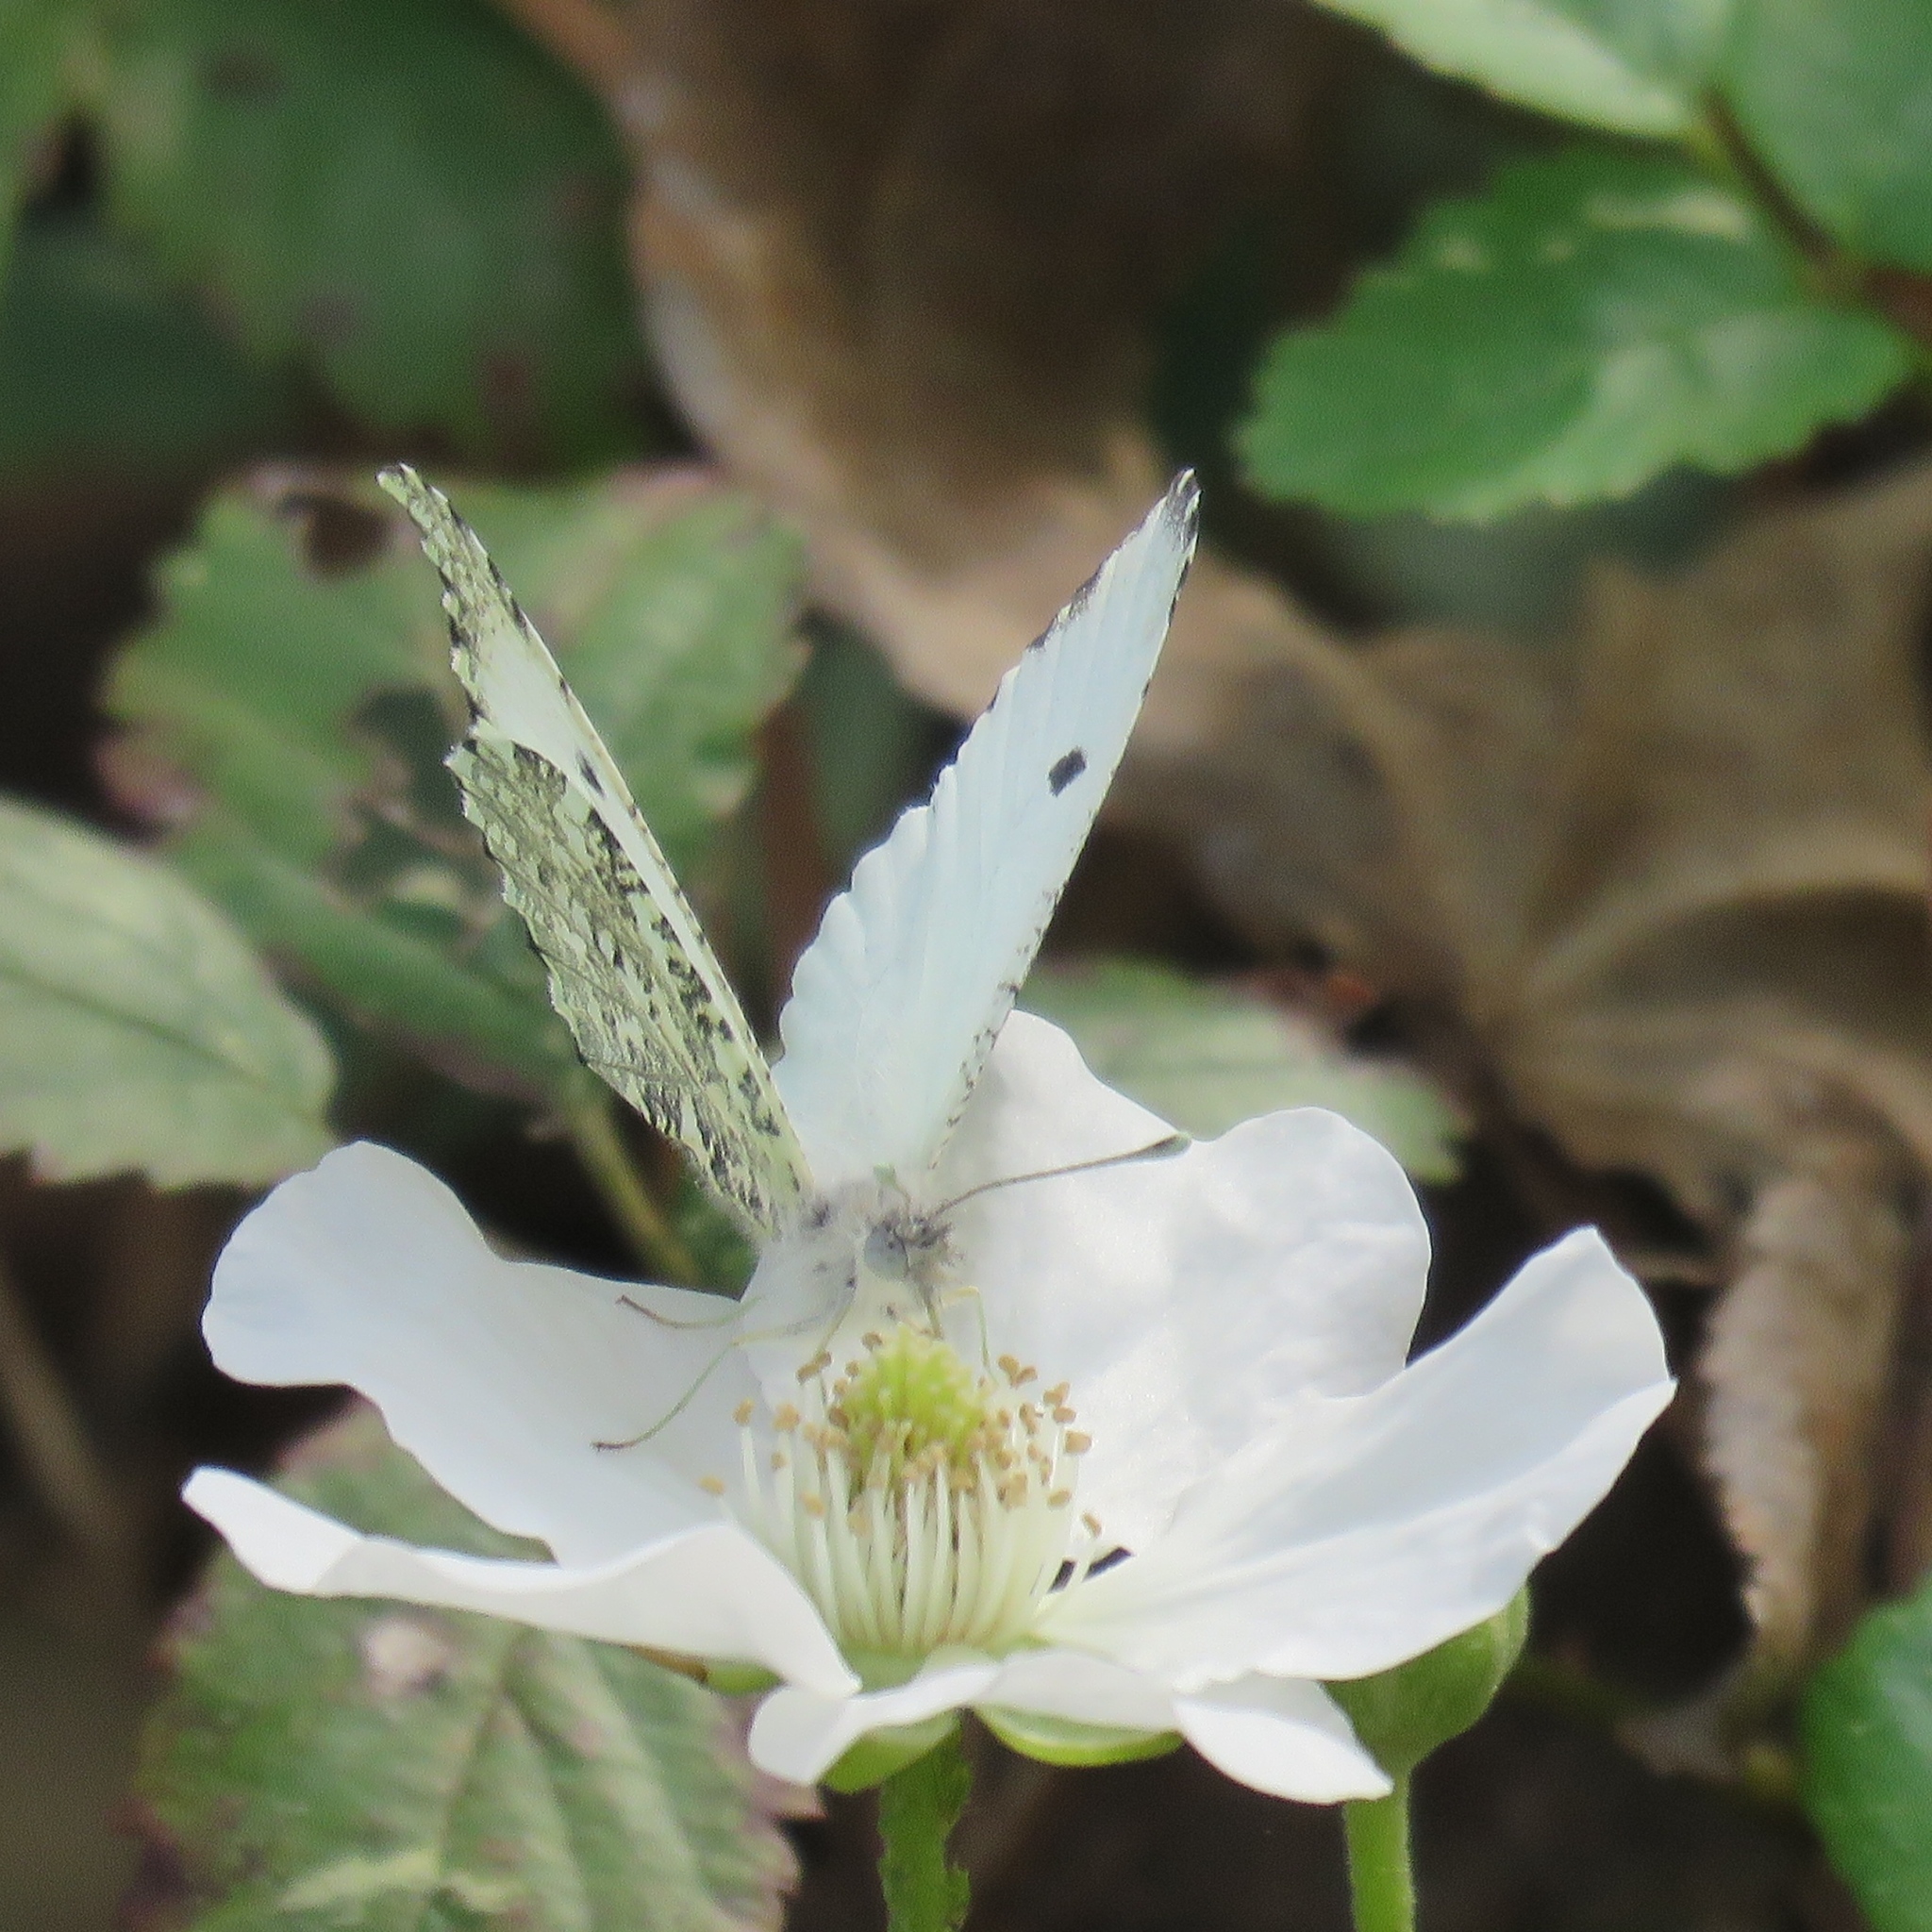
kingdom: Animalia
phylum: Arthropoda
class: Insecta
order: Lepidoptera
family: Pieridae
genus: Anthocharis
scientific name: Anthocharis midea
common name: Falcate orangetip
